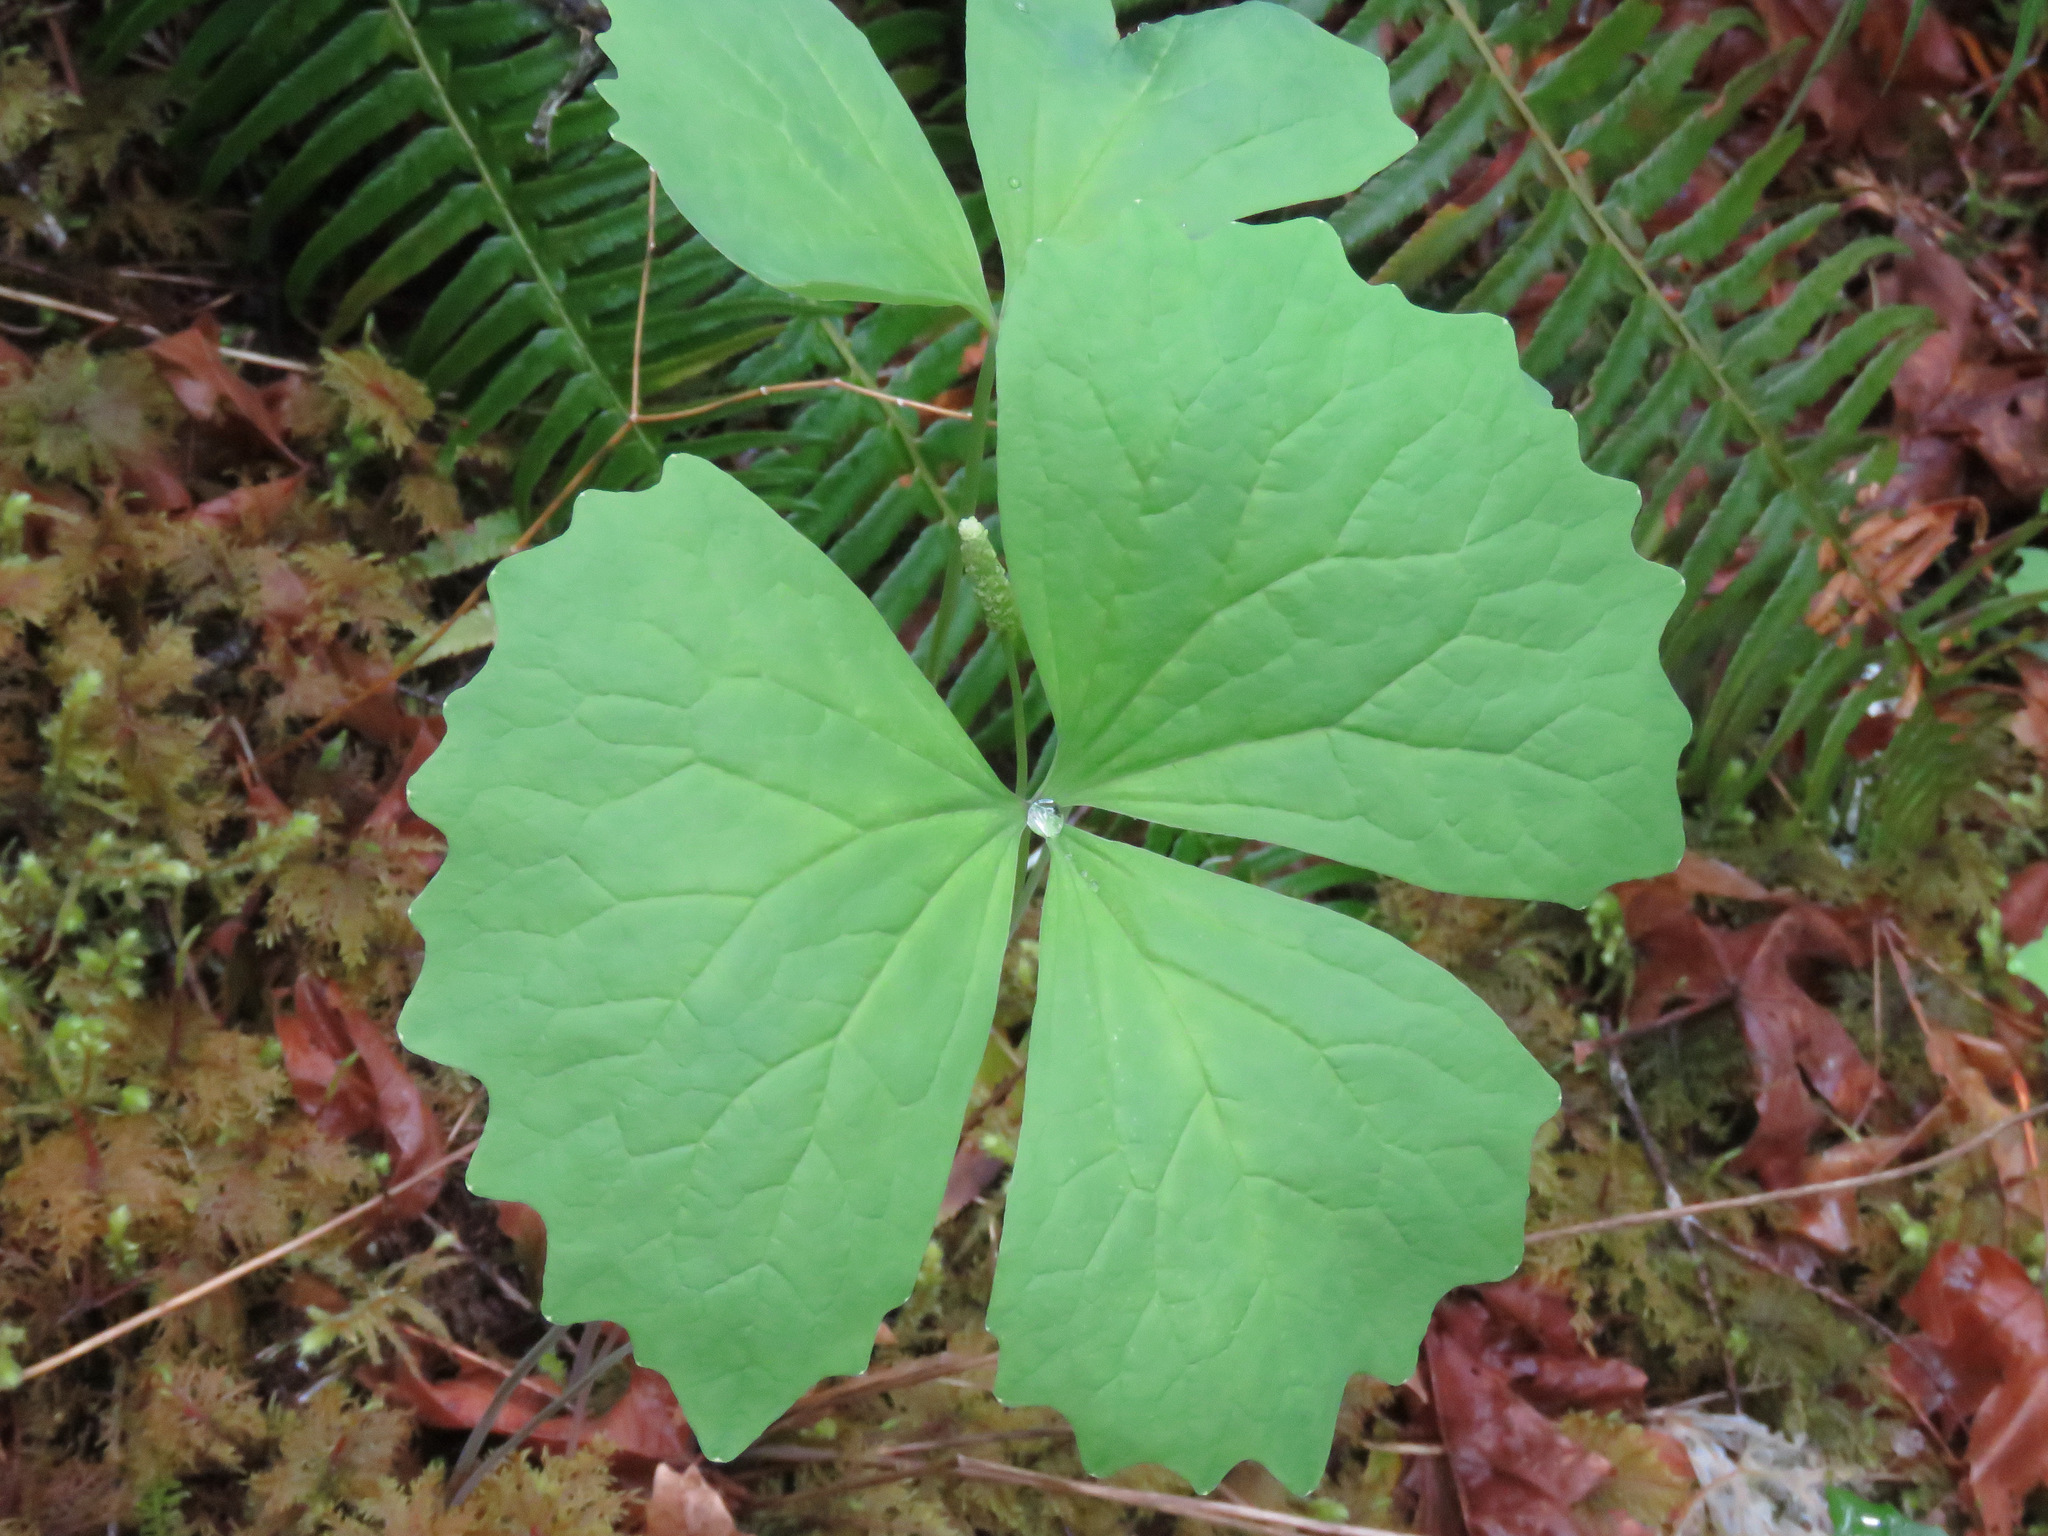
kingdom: Plantae
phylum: Tracheophyta
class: Magnoliopsida
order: Ranunculales
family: Berberidaceae
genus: Achlys
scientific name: Achlys triphylla
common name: Vanilla-leaf
